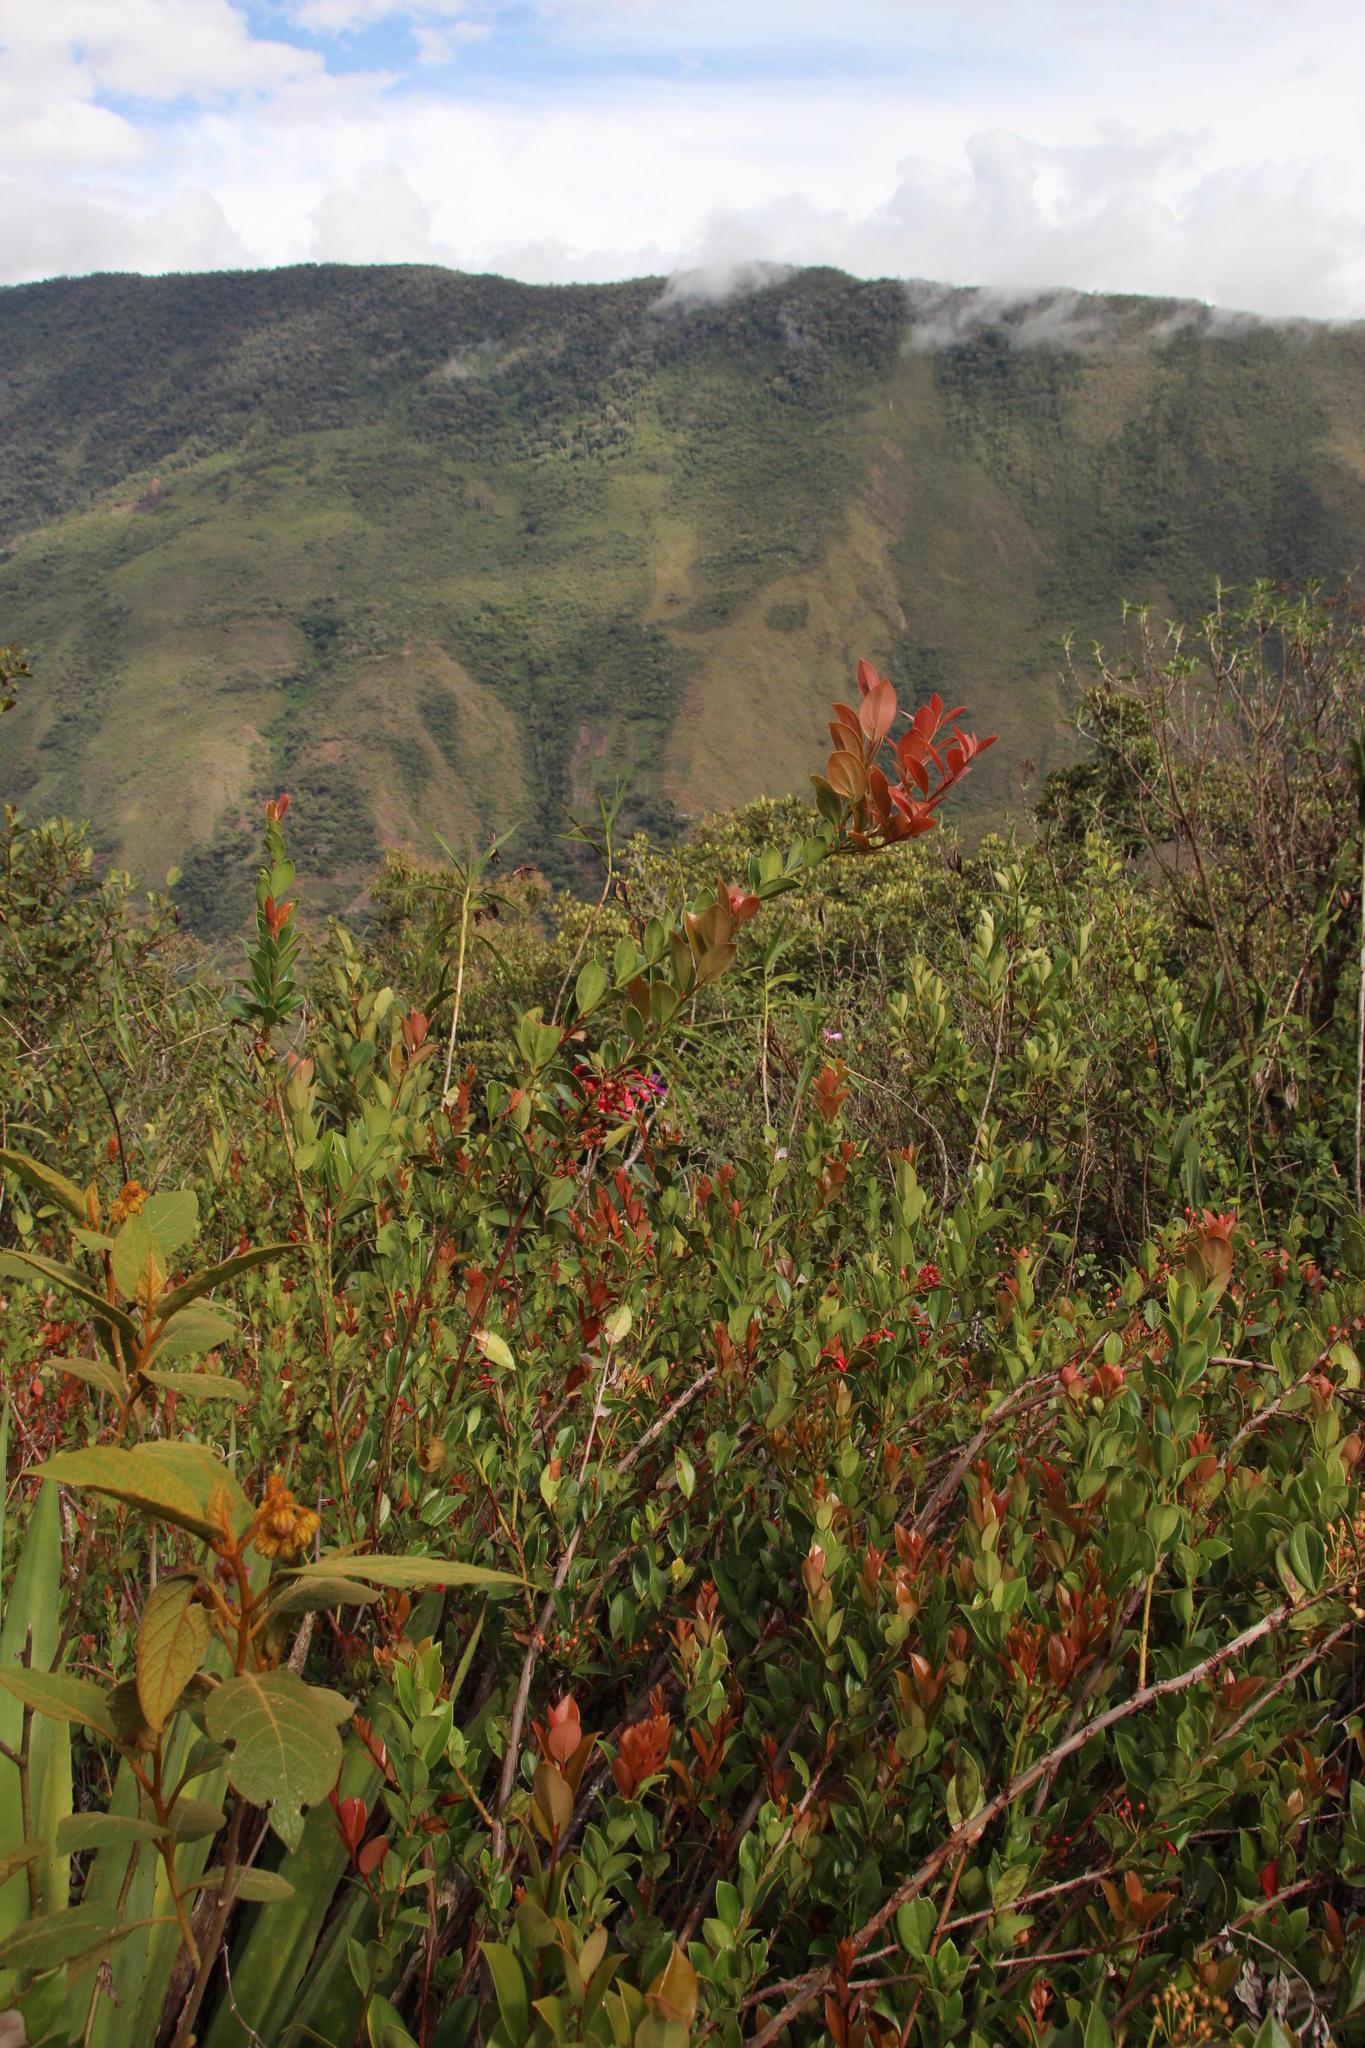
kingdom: Plantae
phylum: Tracheophyta
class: Magnoliopsida
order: Ericales
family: Ericaceae
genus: Thibaudia
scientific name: Thibaudia diphylla
